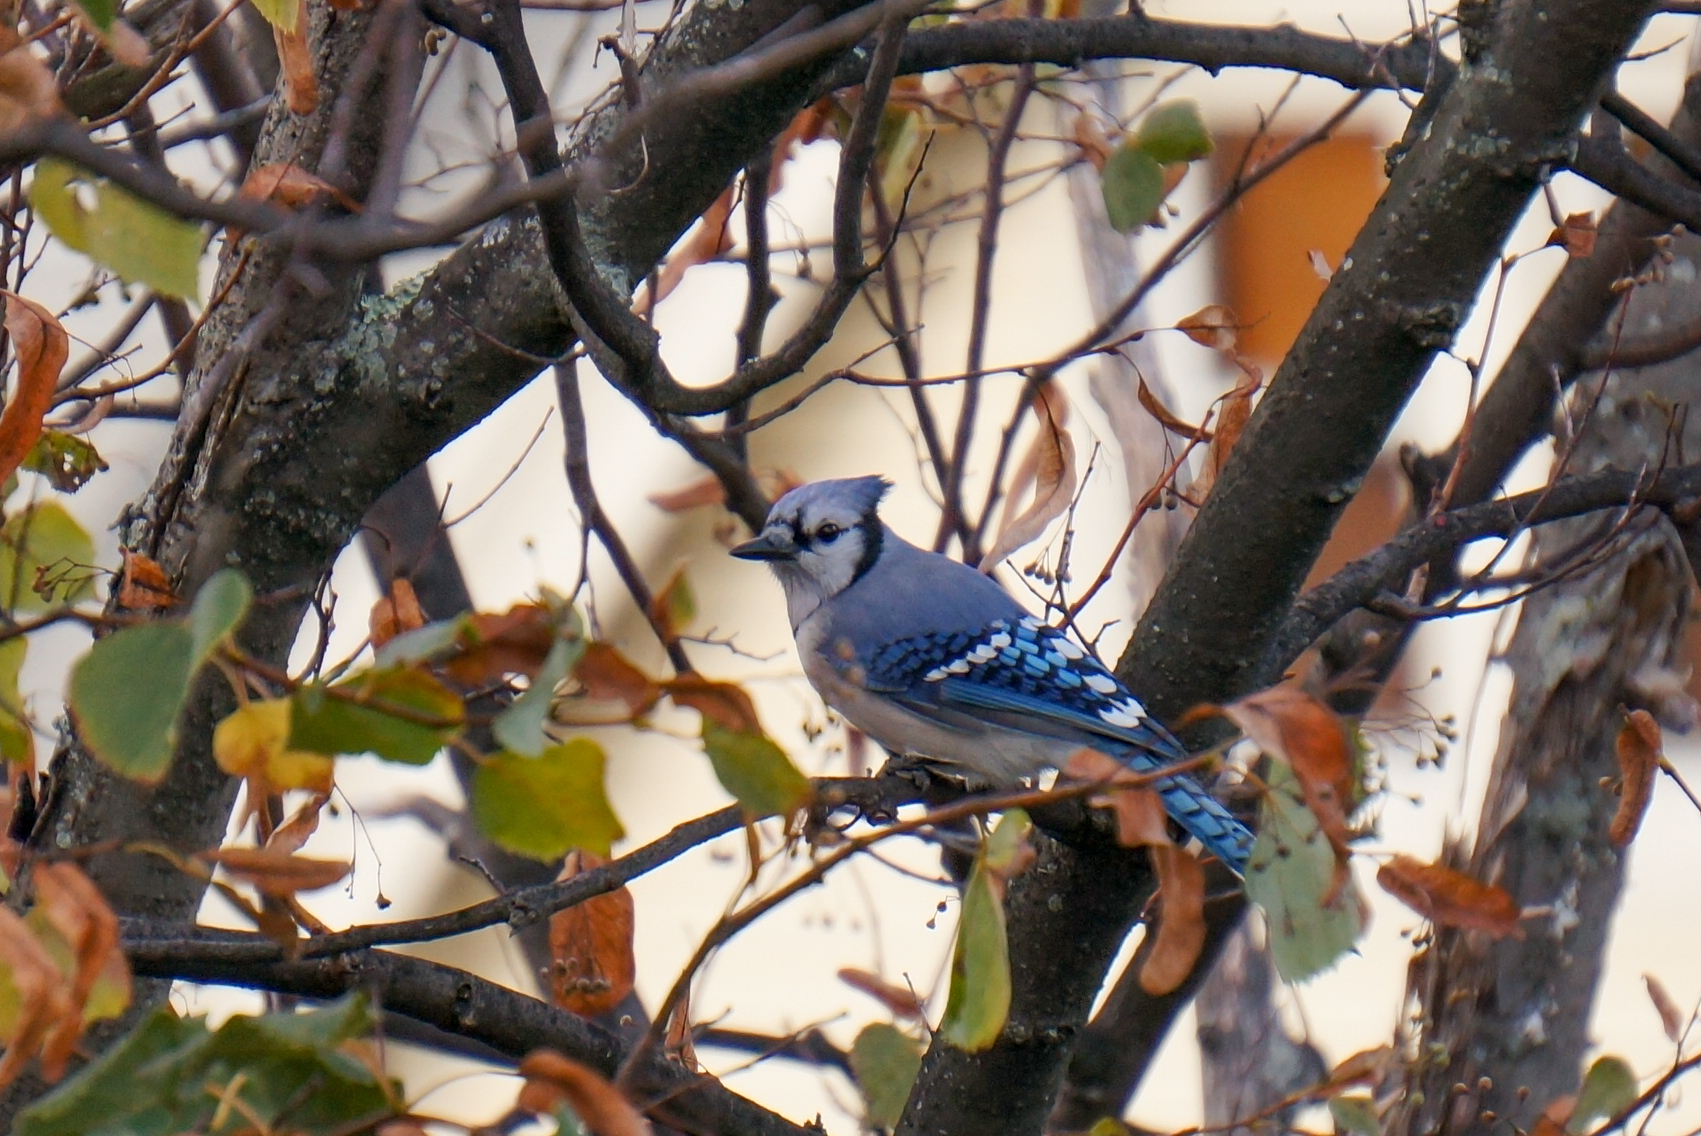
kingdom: Animalia
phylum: Chordata
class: Aves
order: Passeriformes
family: Corvidae
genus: Cyanocitta
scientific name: Cyanocitta cristata
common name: Blue jay
